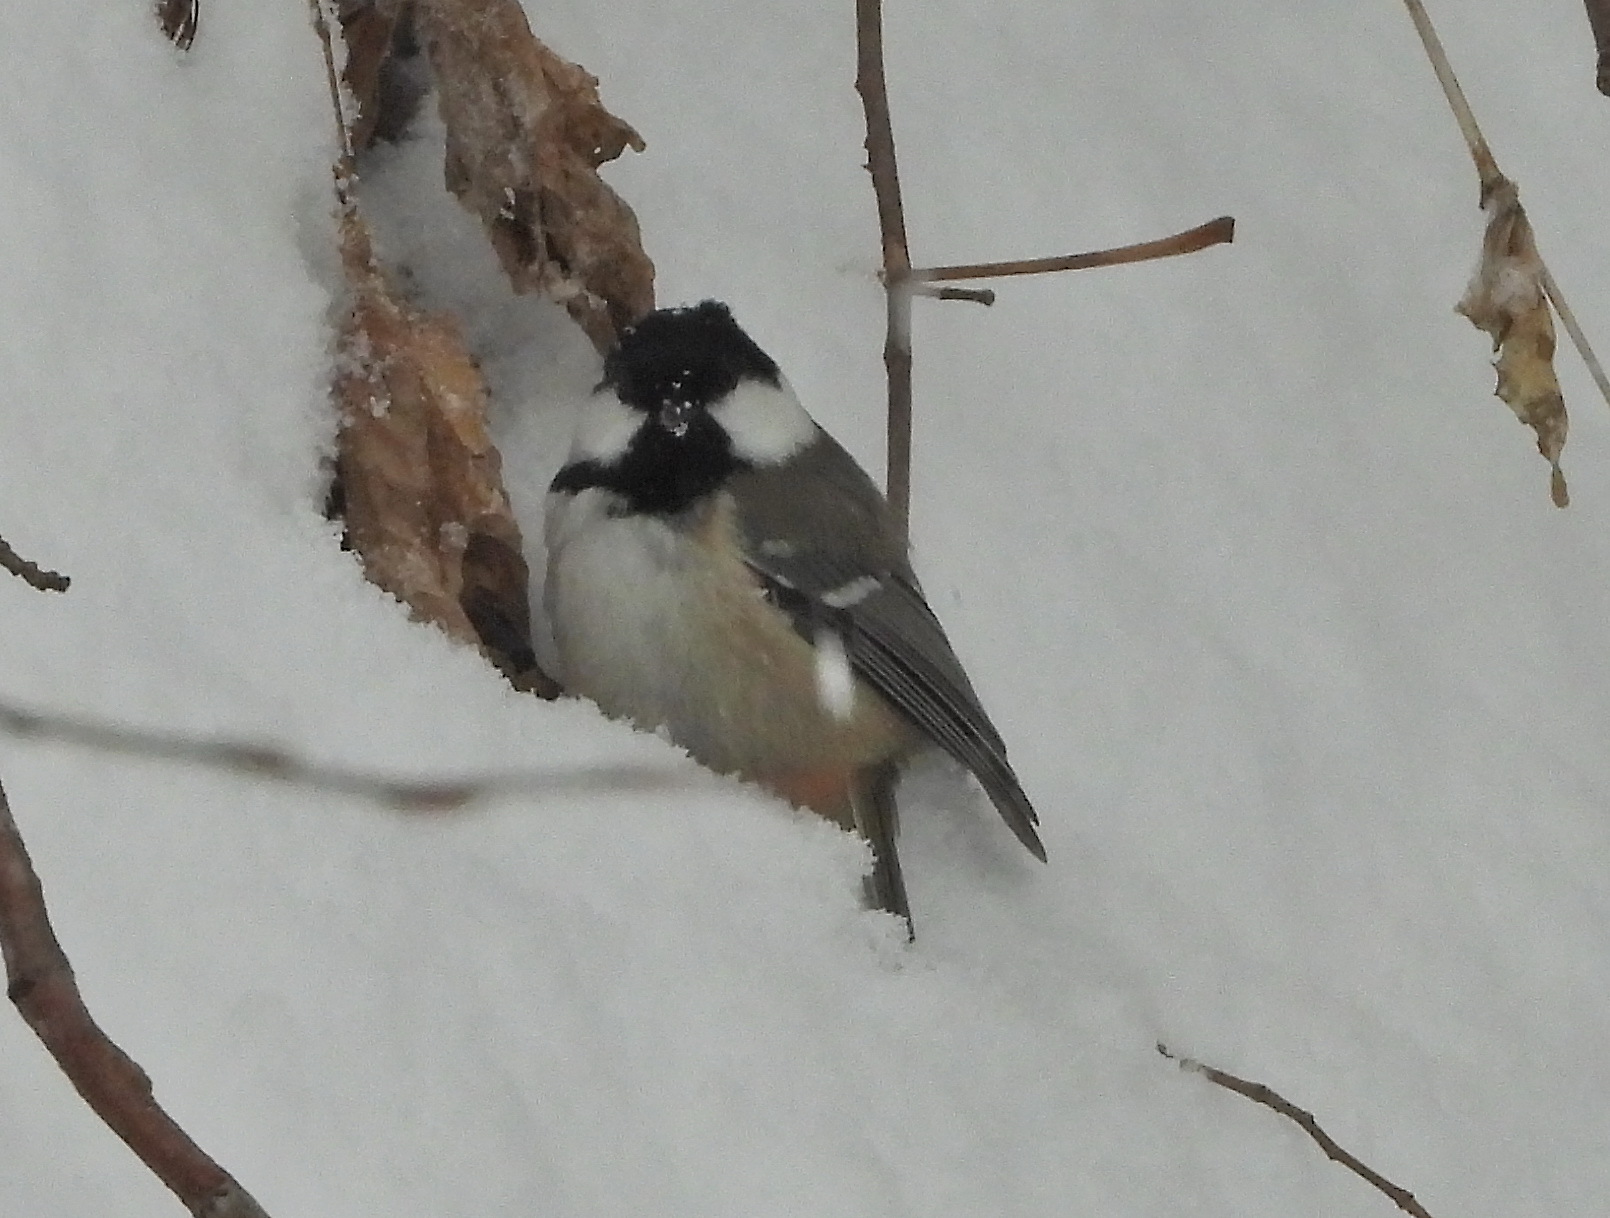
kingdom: Animalia
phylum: Chordata
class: Aves
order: Passeriformes
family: Paridae
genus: Periparus
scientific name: Periparus ater
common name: Coal tit
